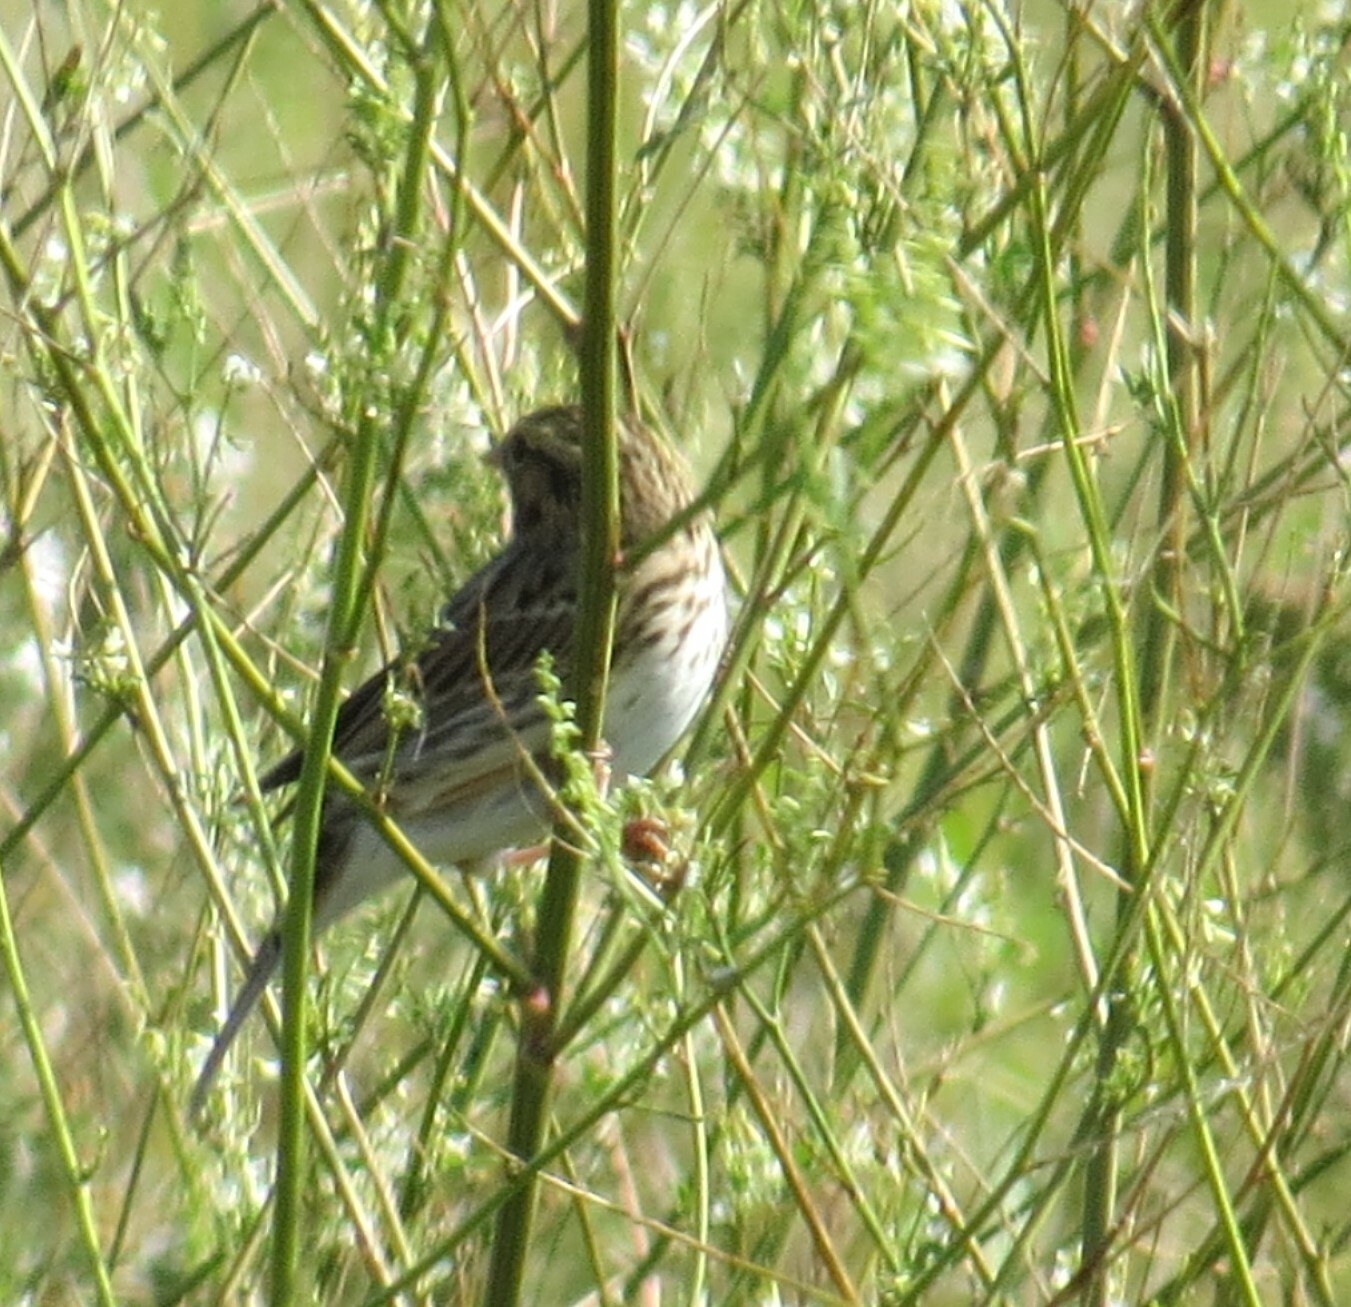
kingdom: Animalia
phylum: Chordata
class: Aves
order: Passeriformes
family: Passerellidae
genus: Passerculus
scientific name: Passerculus sandwichensis
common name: Savannah sparrow
